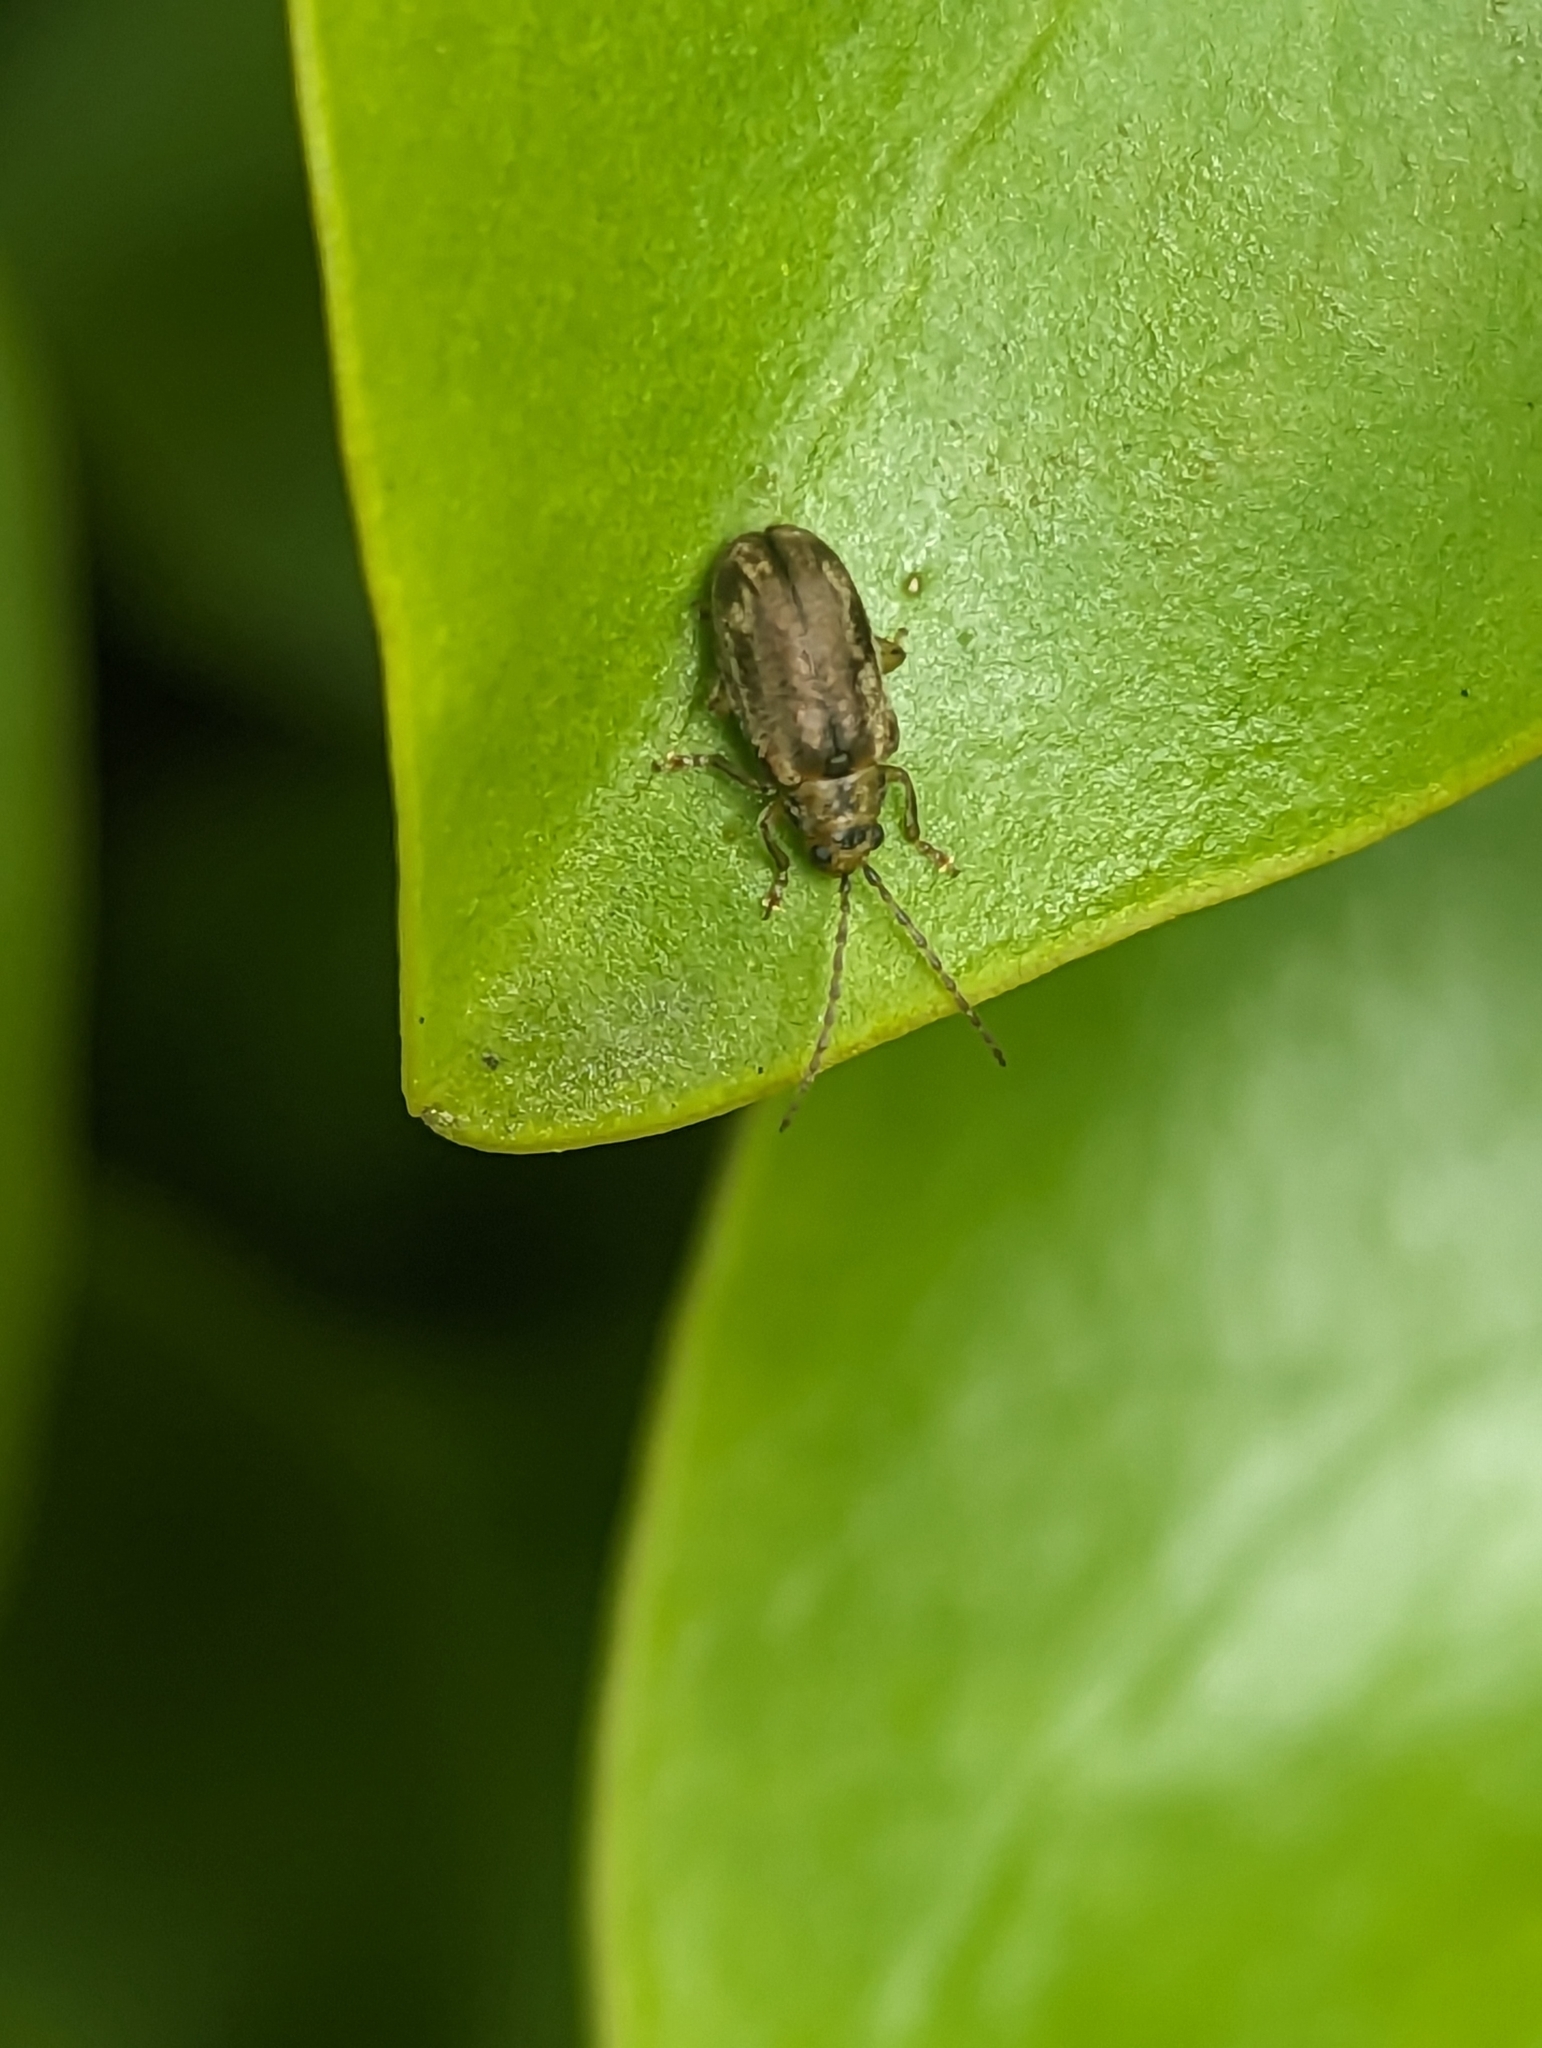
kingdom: Animalia
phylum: Arthropoda
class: Insecta
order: Coleoptera
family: Chrysomelidae
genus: Pyrrhalta
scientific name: Pyrrhalta viburni
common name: Guelder-rose leaf beetle
